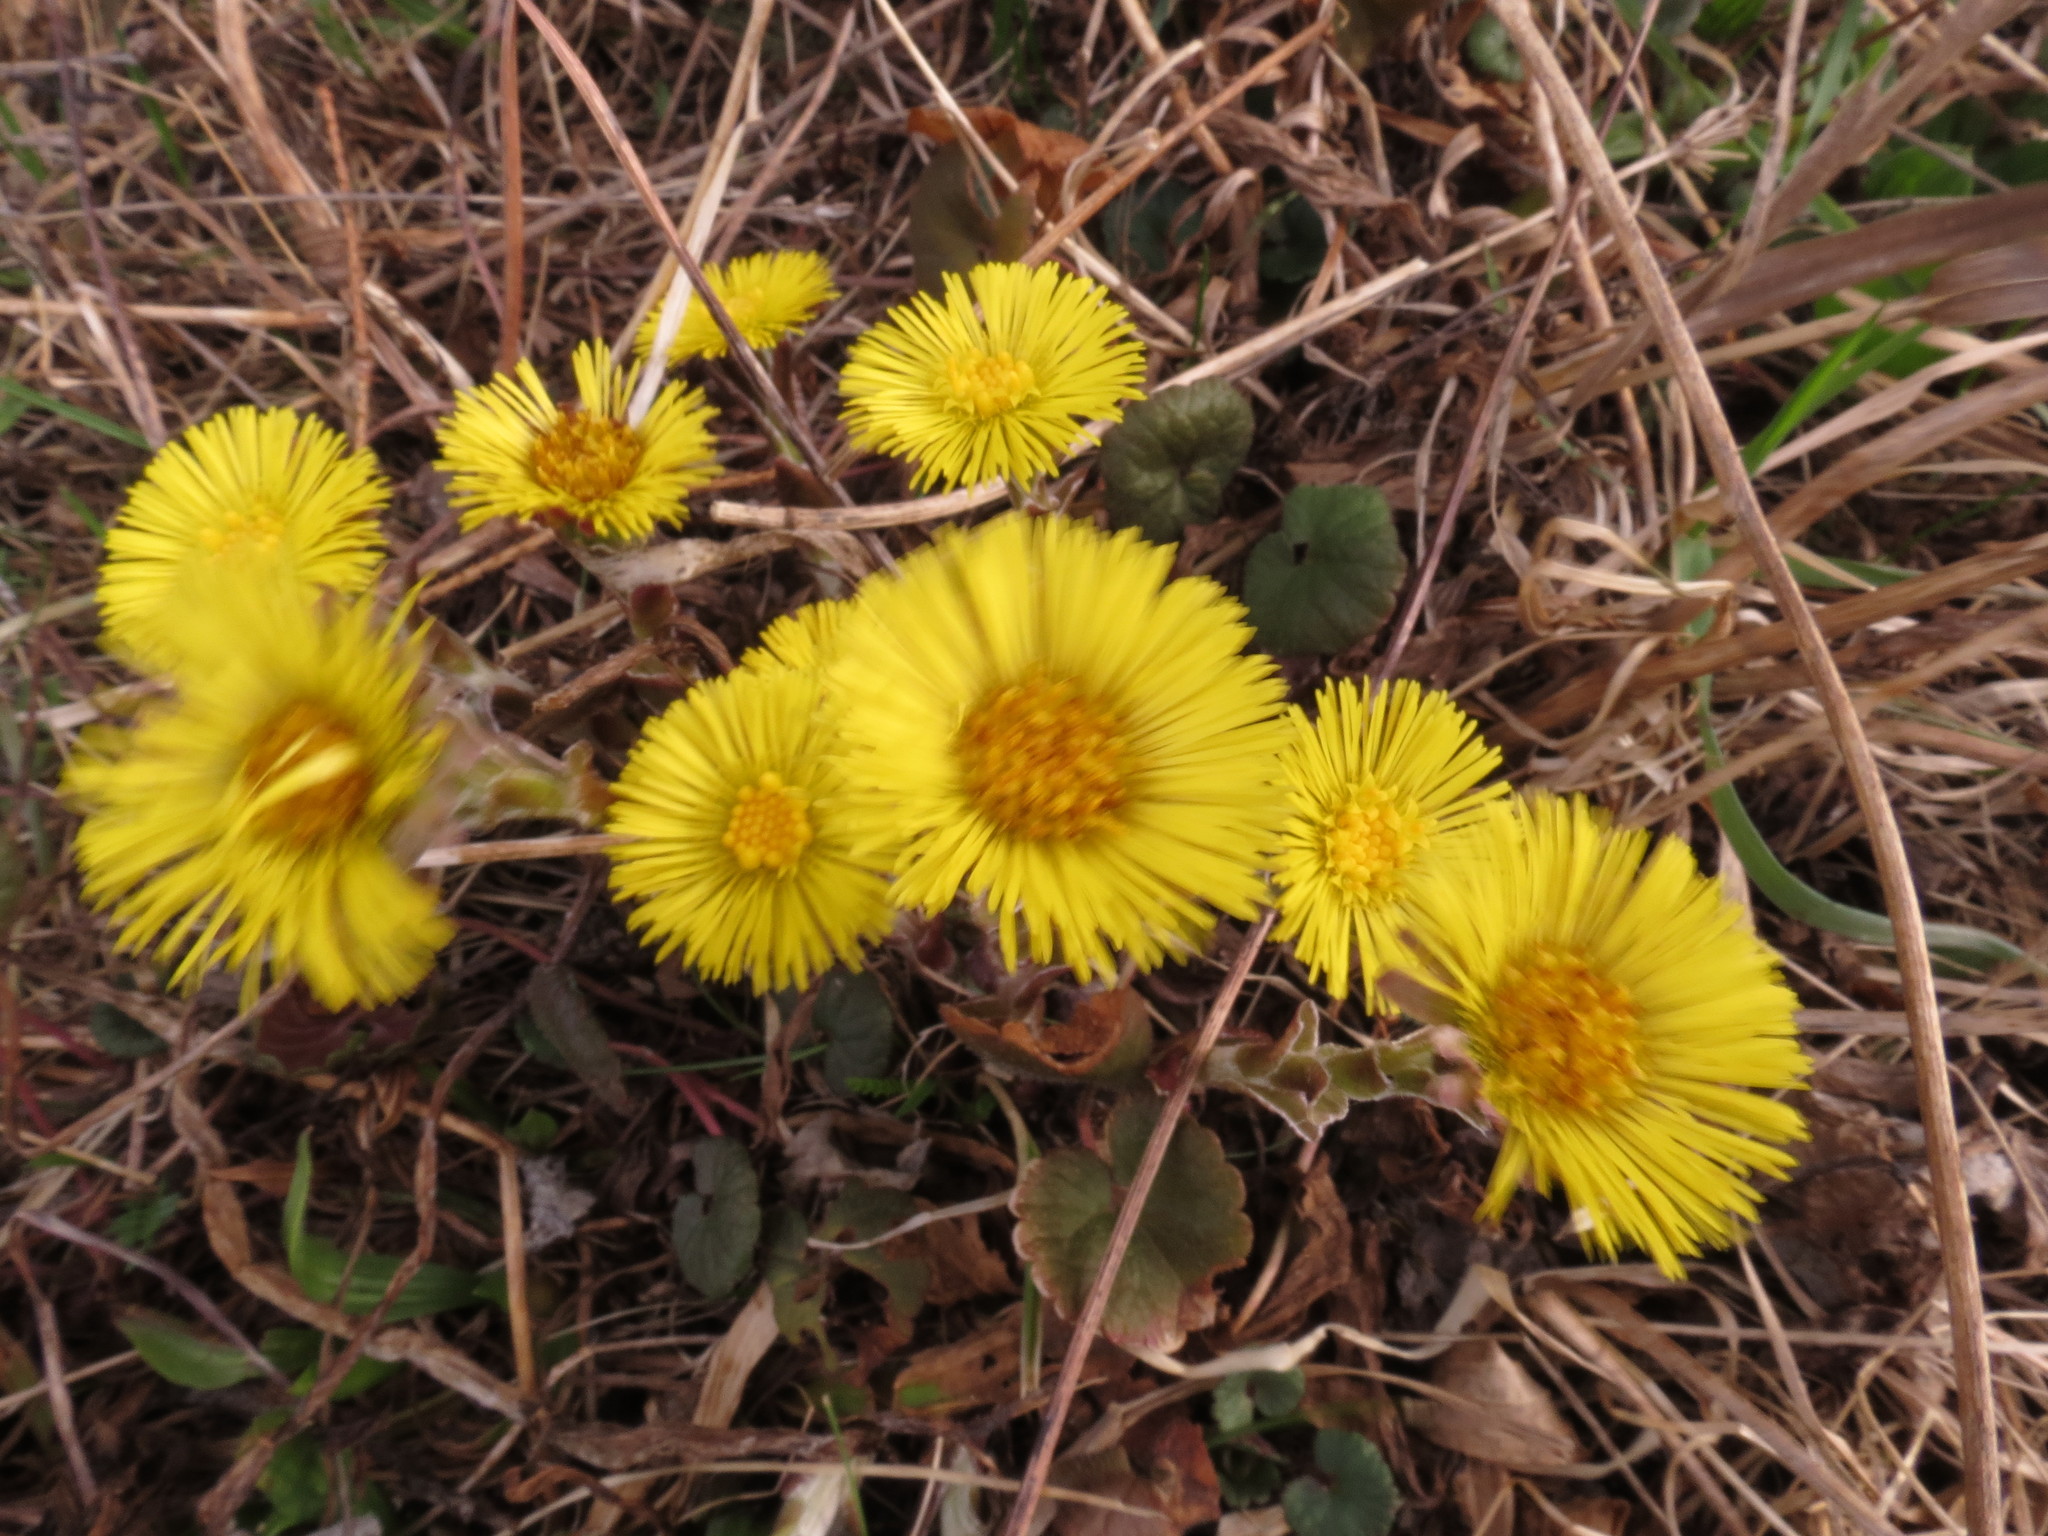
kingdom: Plantae
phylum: Tracheophyta
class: Magnoliopsida
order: Asterales
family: Asteraceae
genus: Tussilago
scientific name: Tussilago farfara
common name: Coltsfoot
